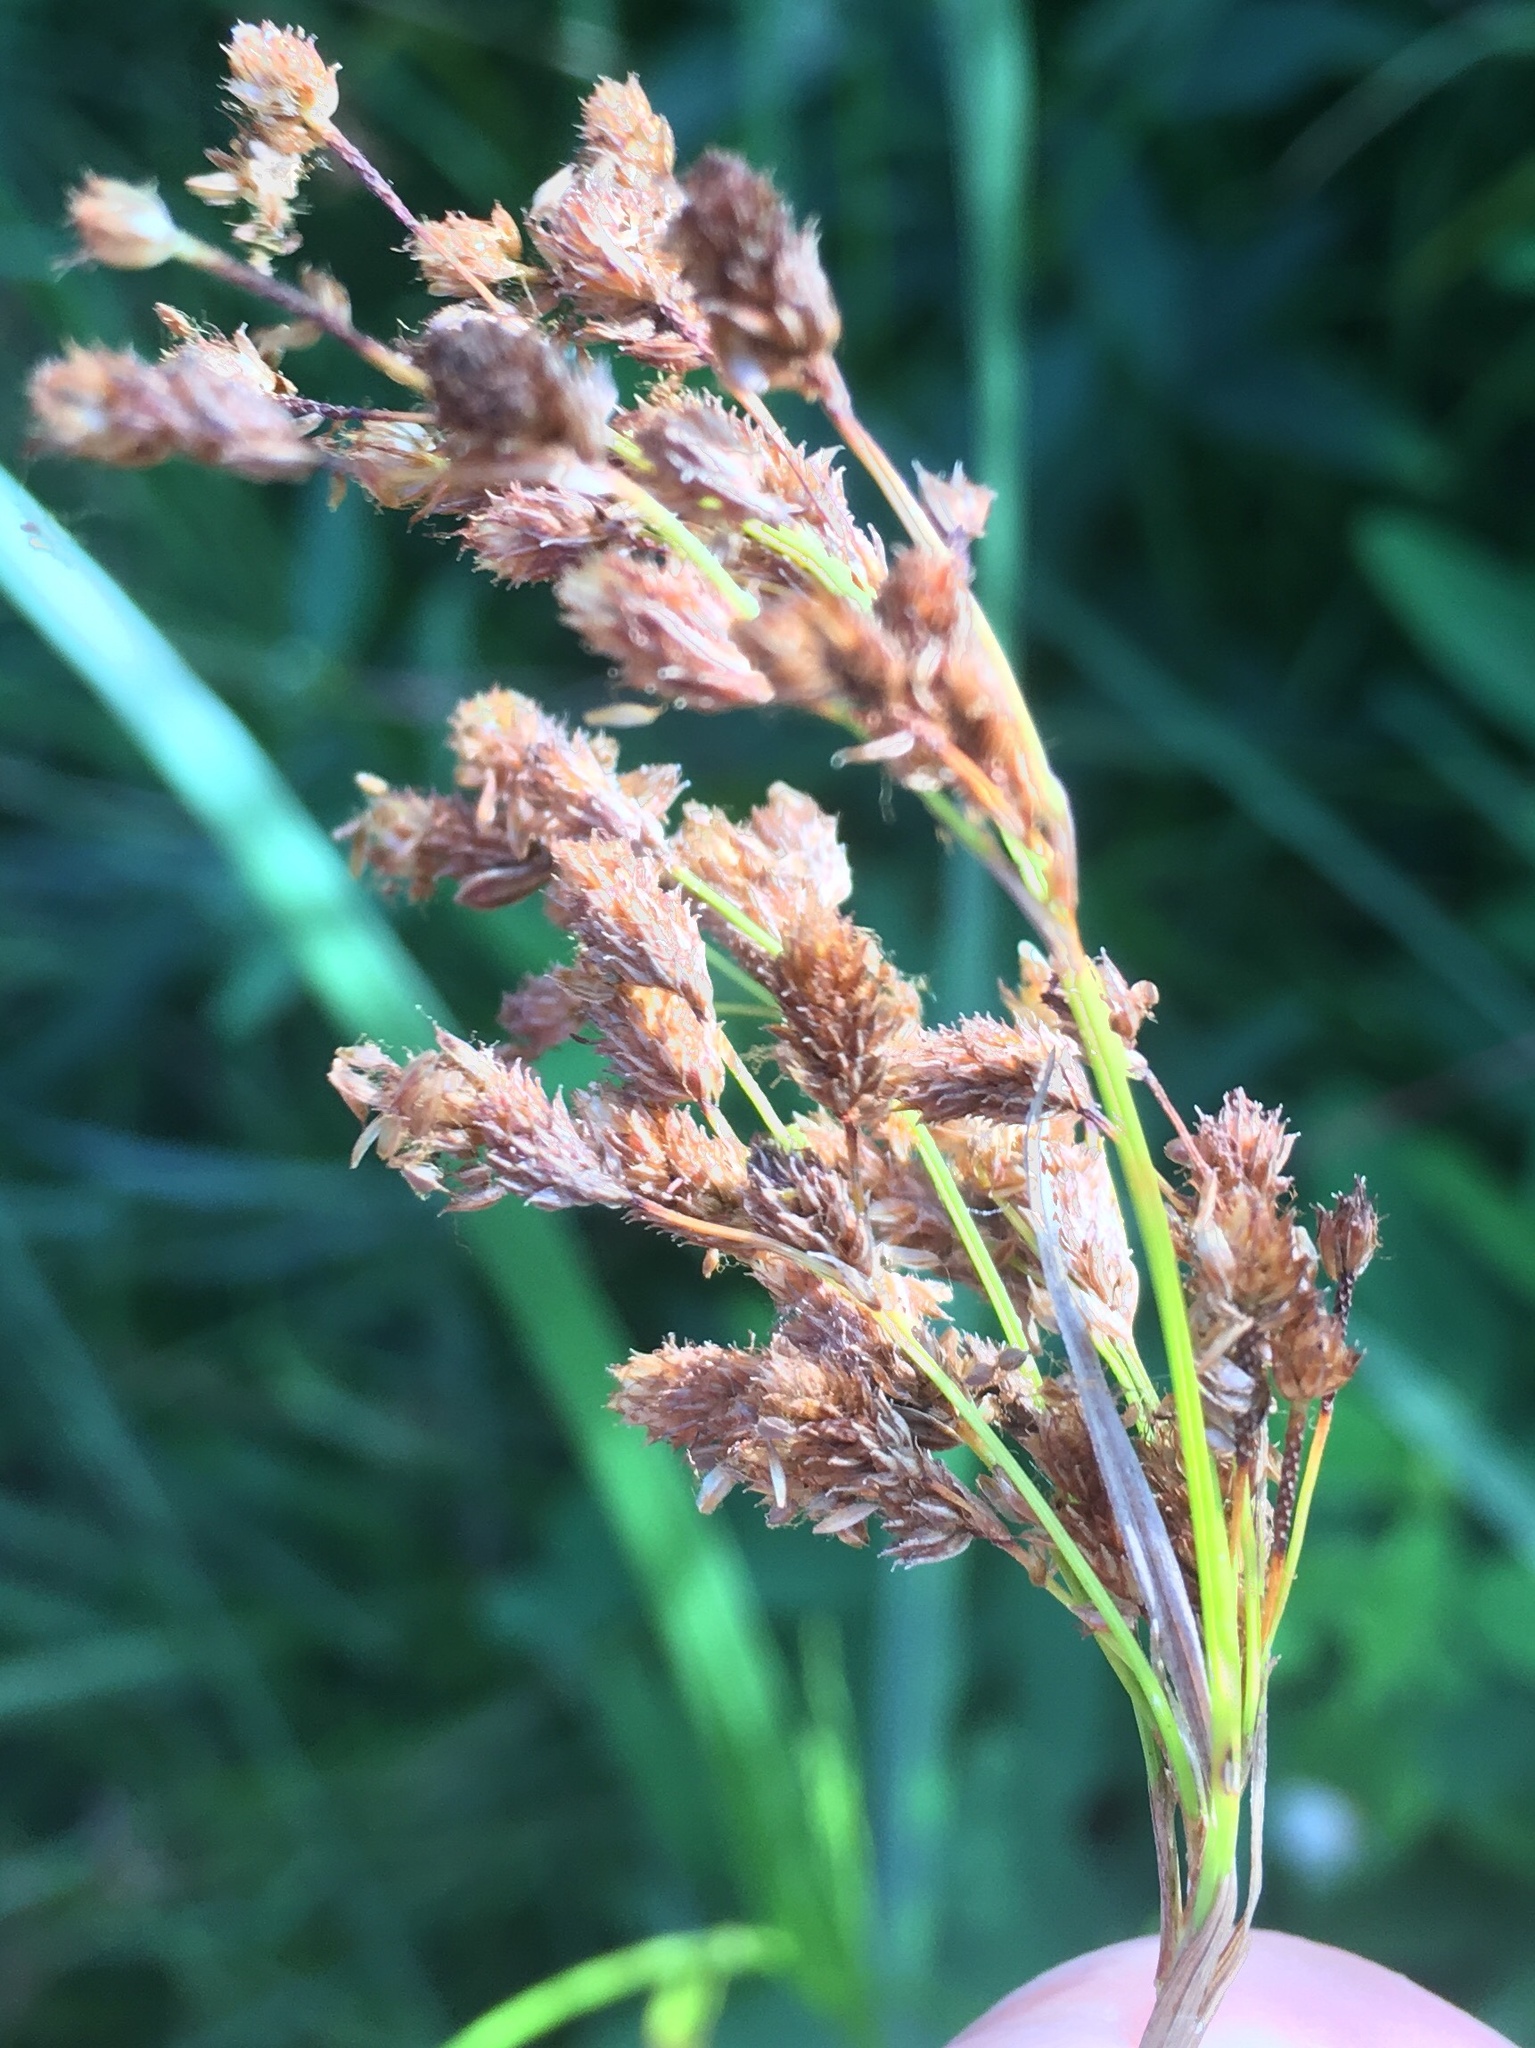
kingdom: Plantae
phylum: Tracheophyta
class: Liliopsida
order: Poales
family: Cyperaceae
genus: Scirpus
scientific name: Scirpus pendulus
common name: Nodding bulrush
